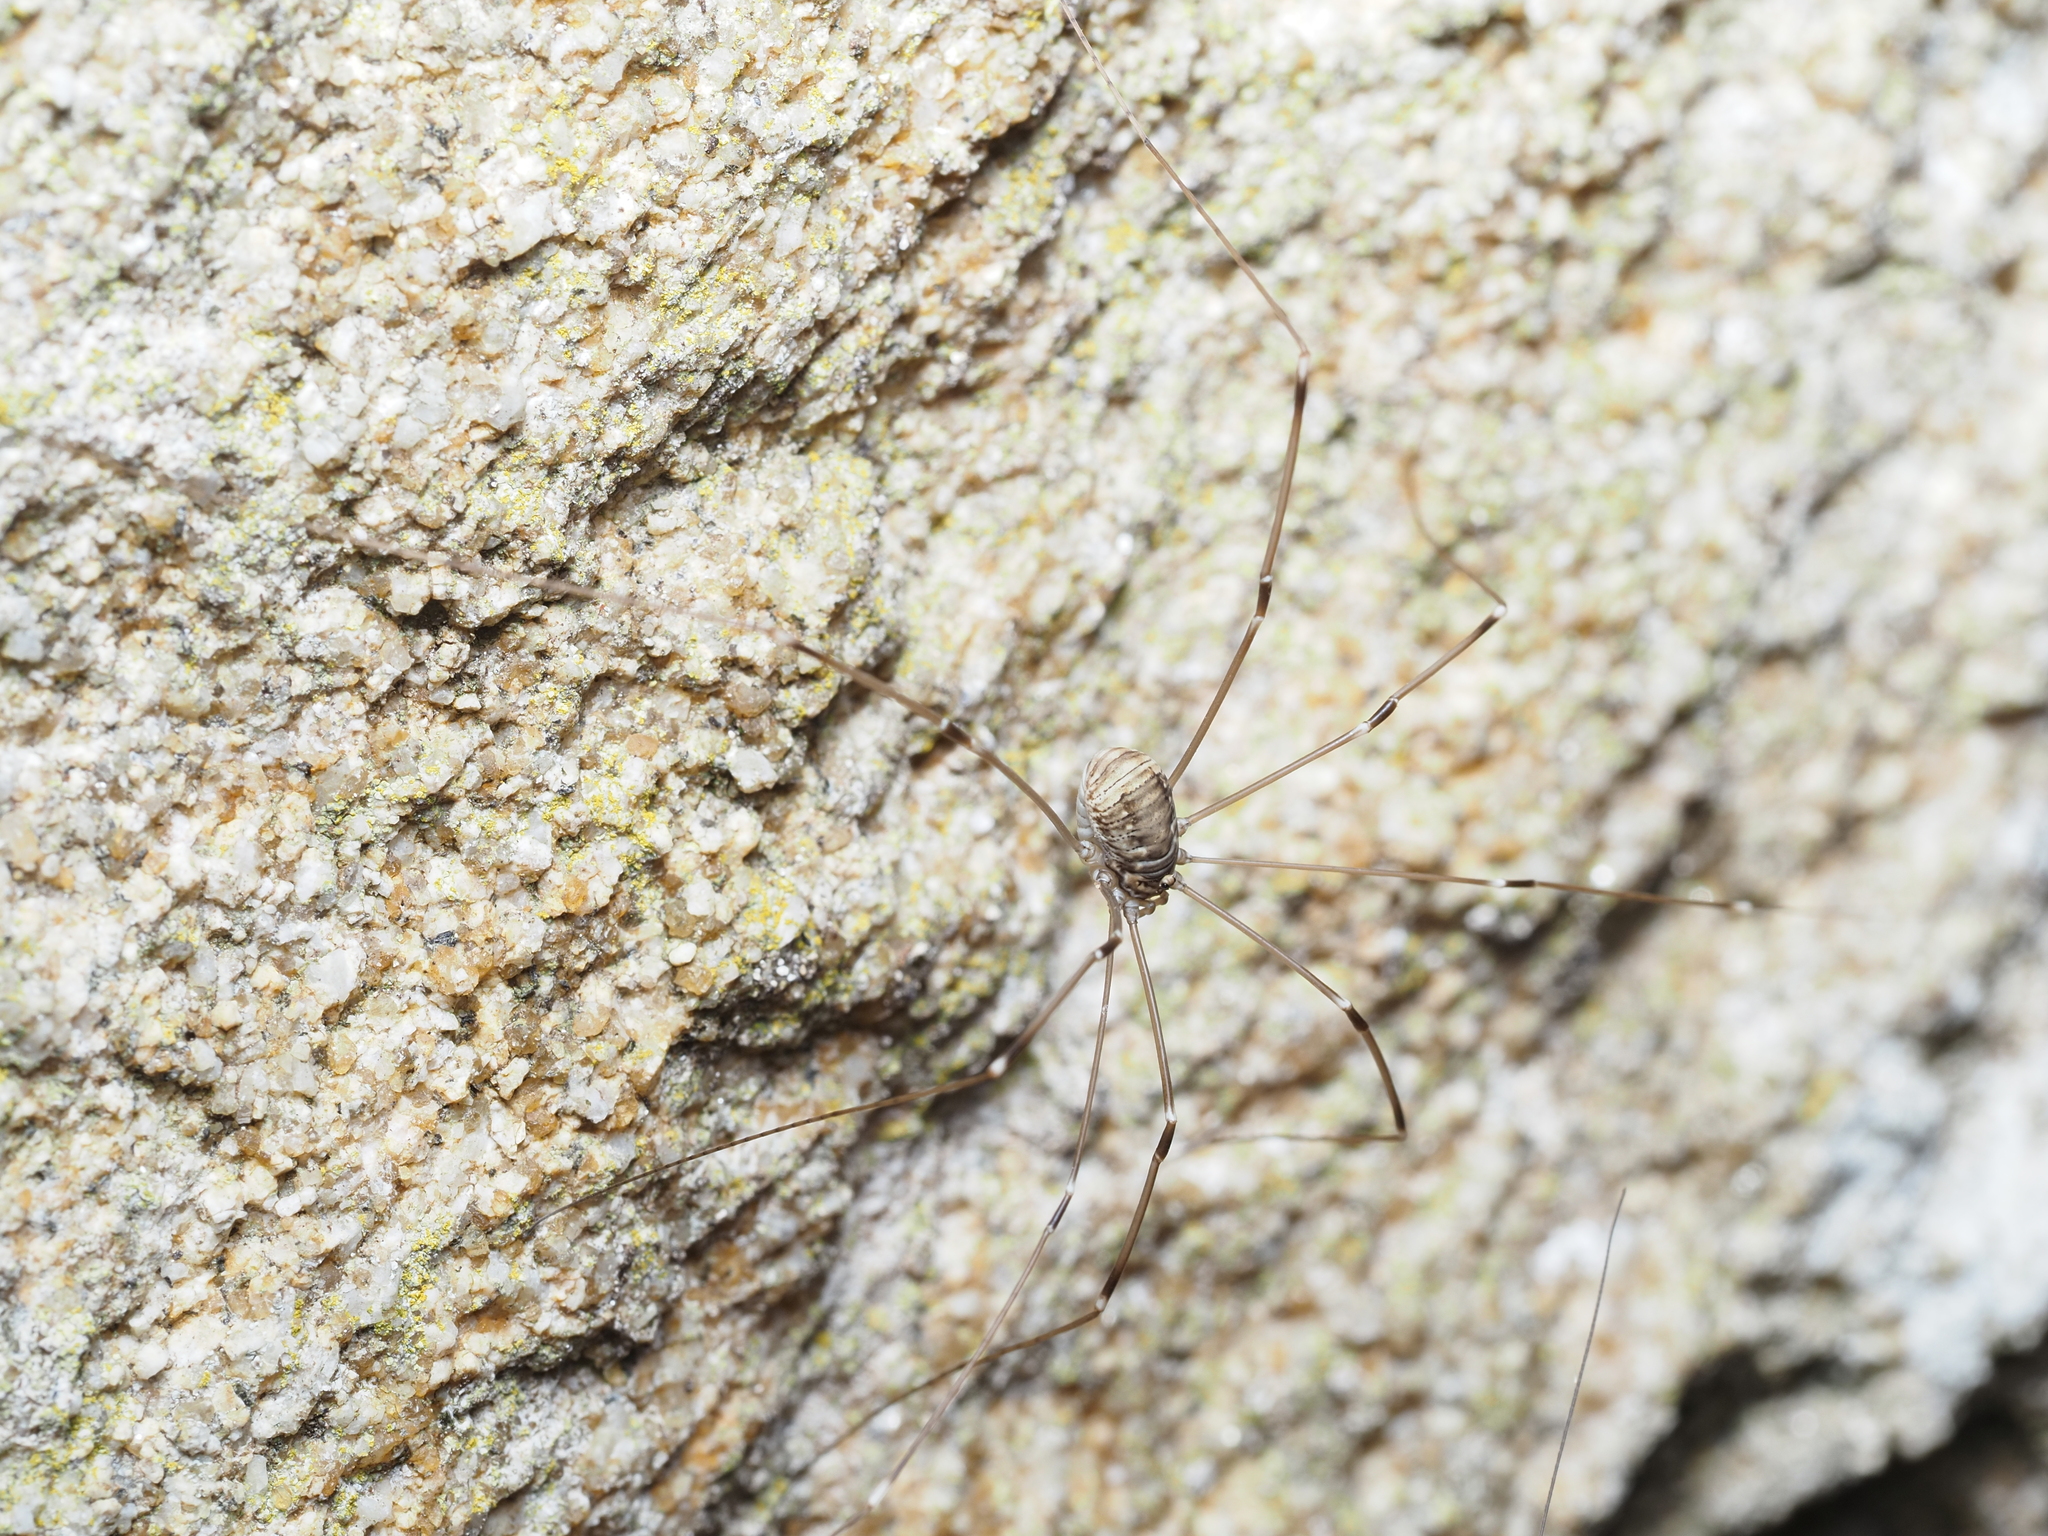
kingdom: Animalia
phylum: Arthropoda
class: Arachnida
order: Opiliones
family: Sclerosomatidae
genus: Leiobunum
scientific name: Leiobunum limbatum
